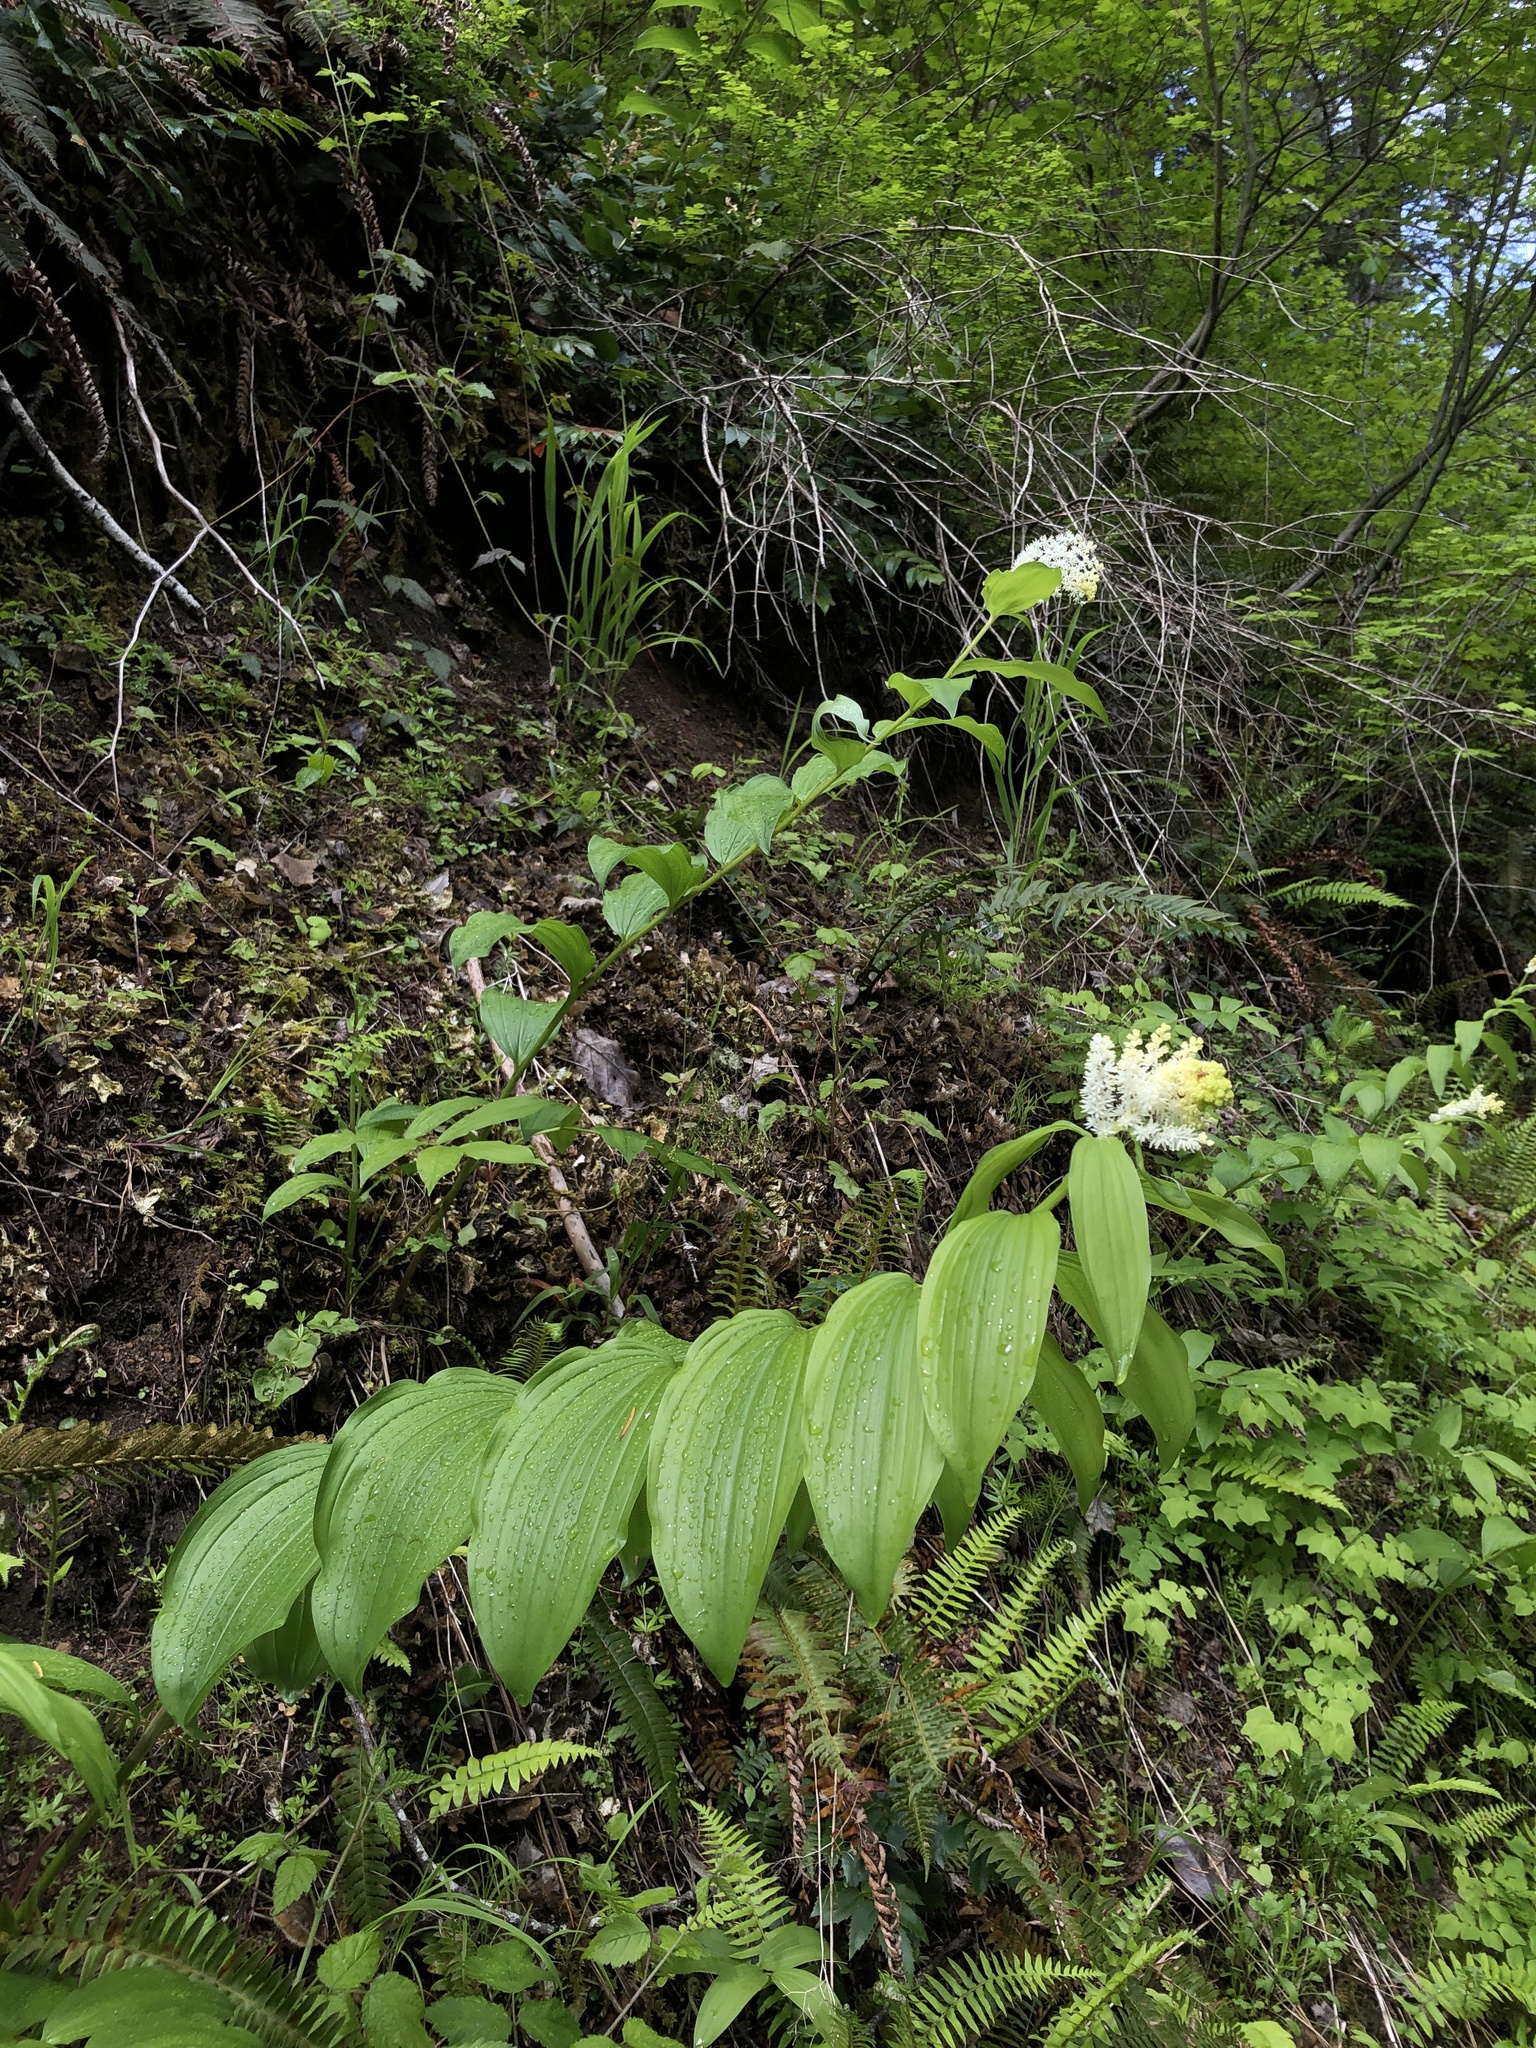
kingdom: Plantae
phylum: Tracheophyta
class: Liliopsida
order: Asparagales
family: Asparagaceae
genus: Maianthemum
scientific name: Maianthemum racemosum
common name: False spikenard
